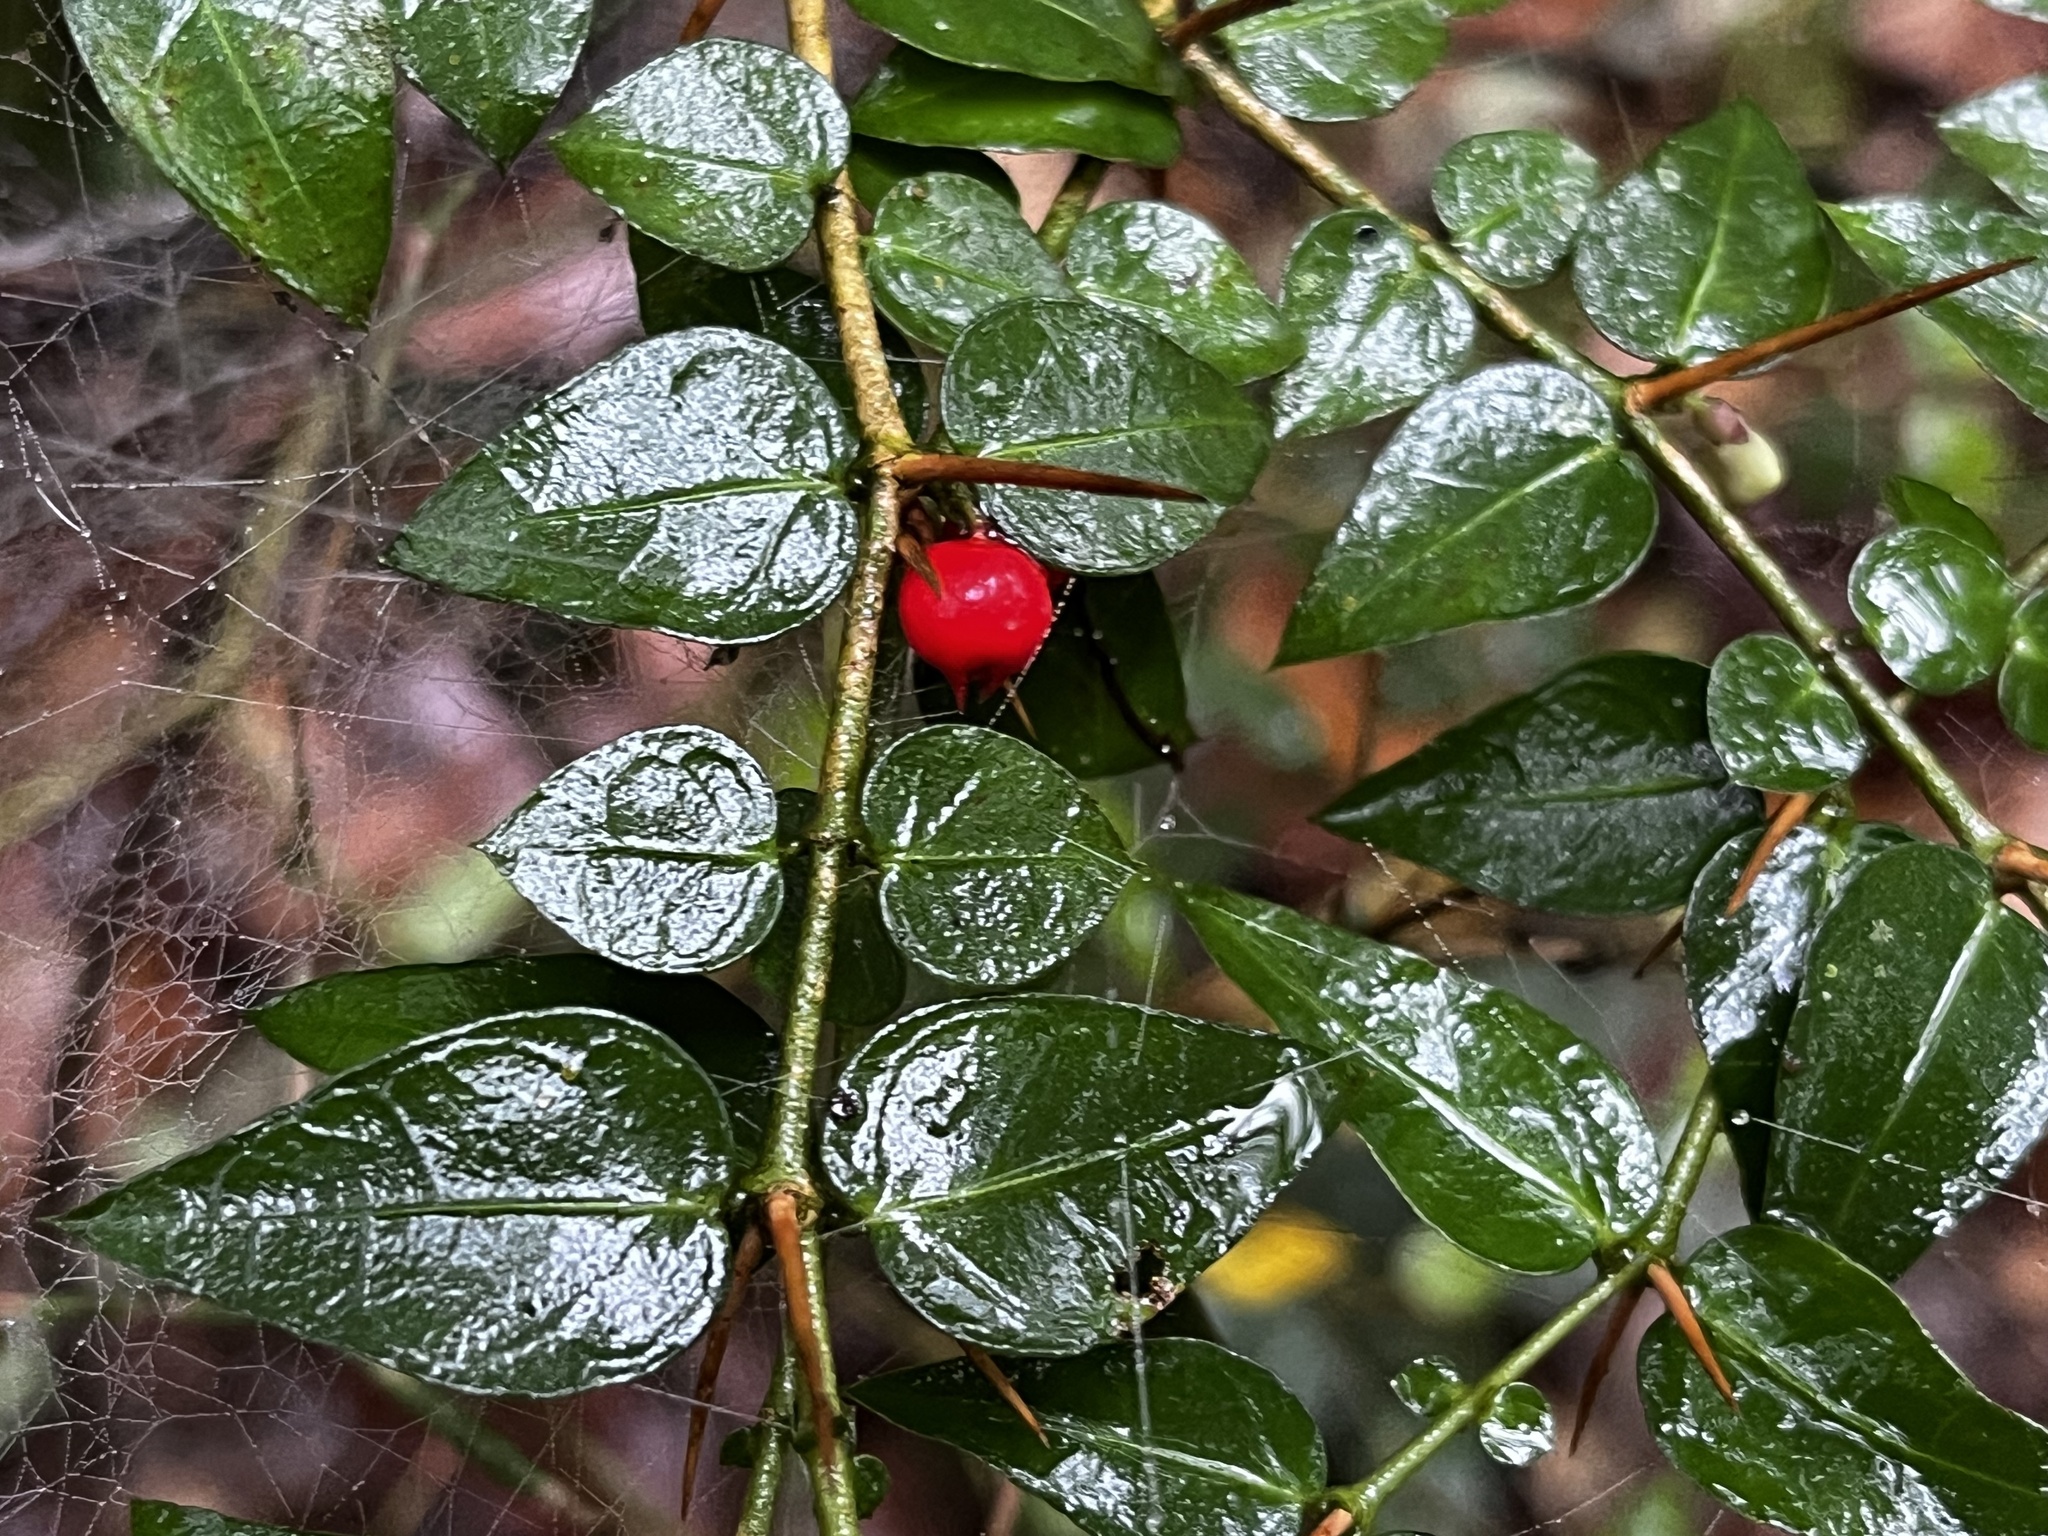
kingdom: Plantae
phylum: Tracheophyta
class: Magnoliopsida
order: Gentianales
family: Rubiaceae
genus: Damnacanthus
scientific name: Damnacanthus indicus
